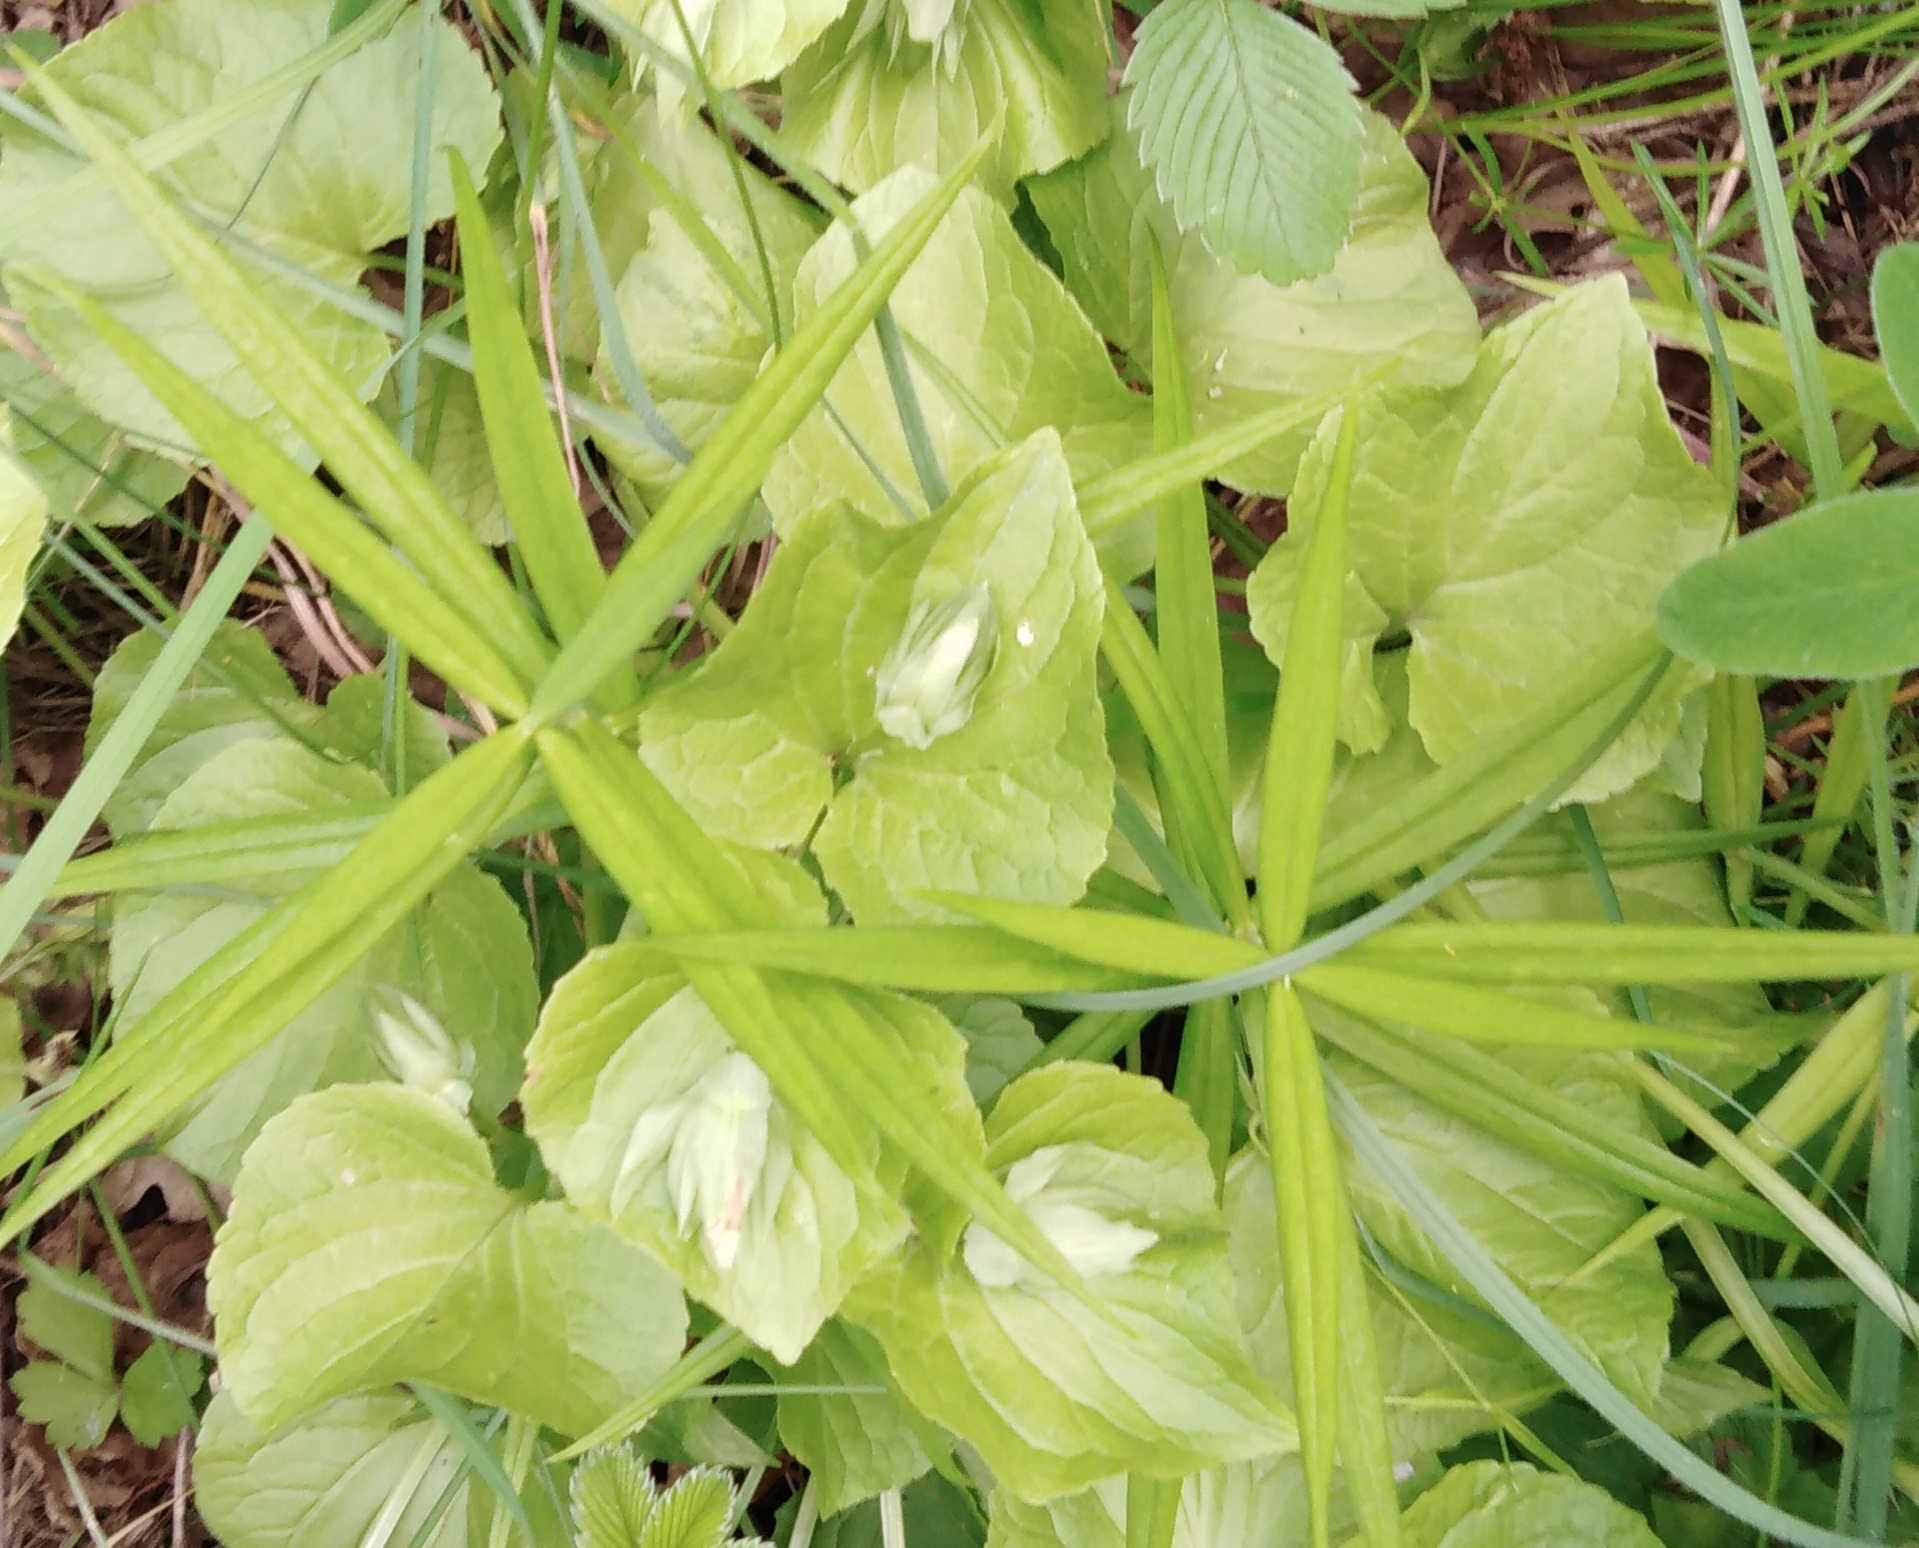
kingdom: Plantae
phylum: Tracheophyta
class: Magnoliopsida
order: Caryophyllales
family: Caryophyllaceae
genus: Rabelera
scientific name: Rabelera holostea
